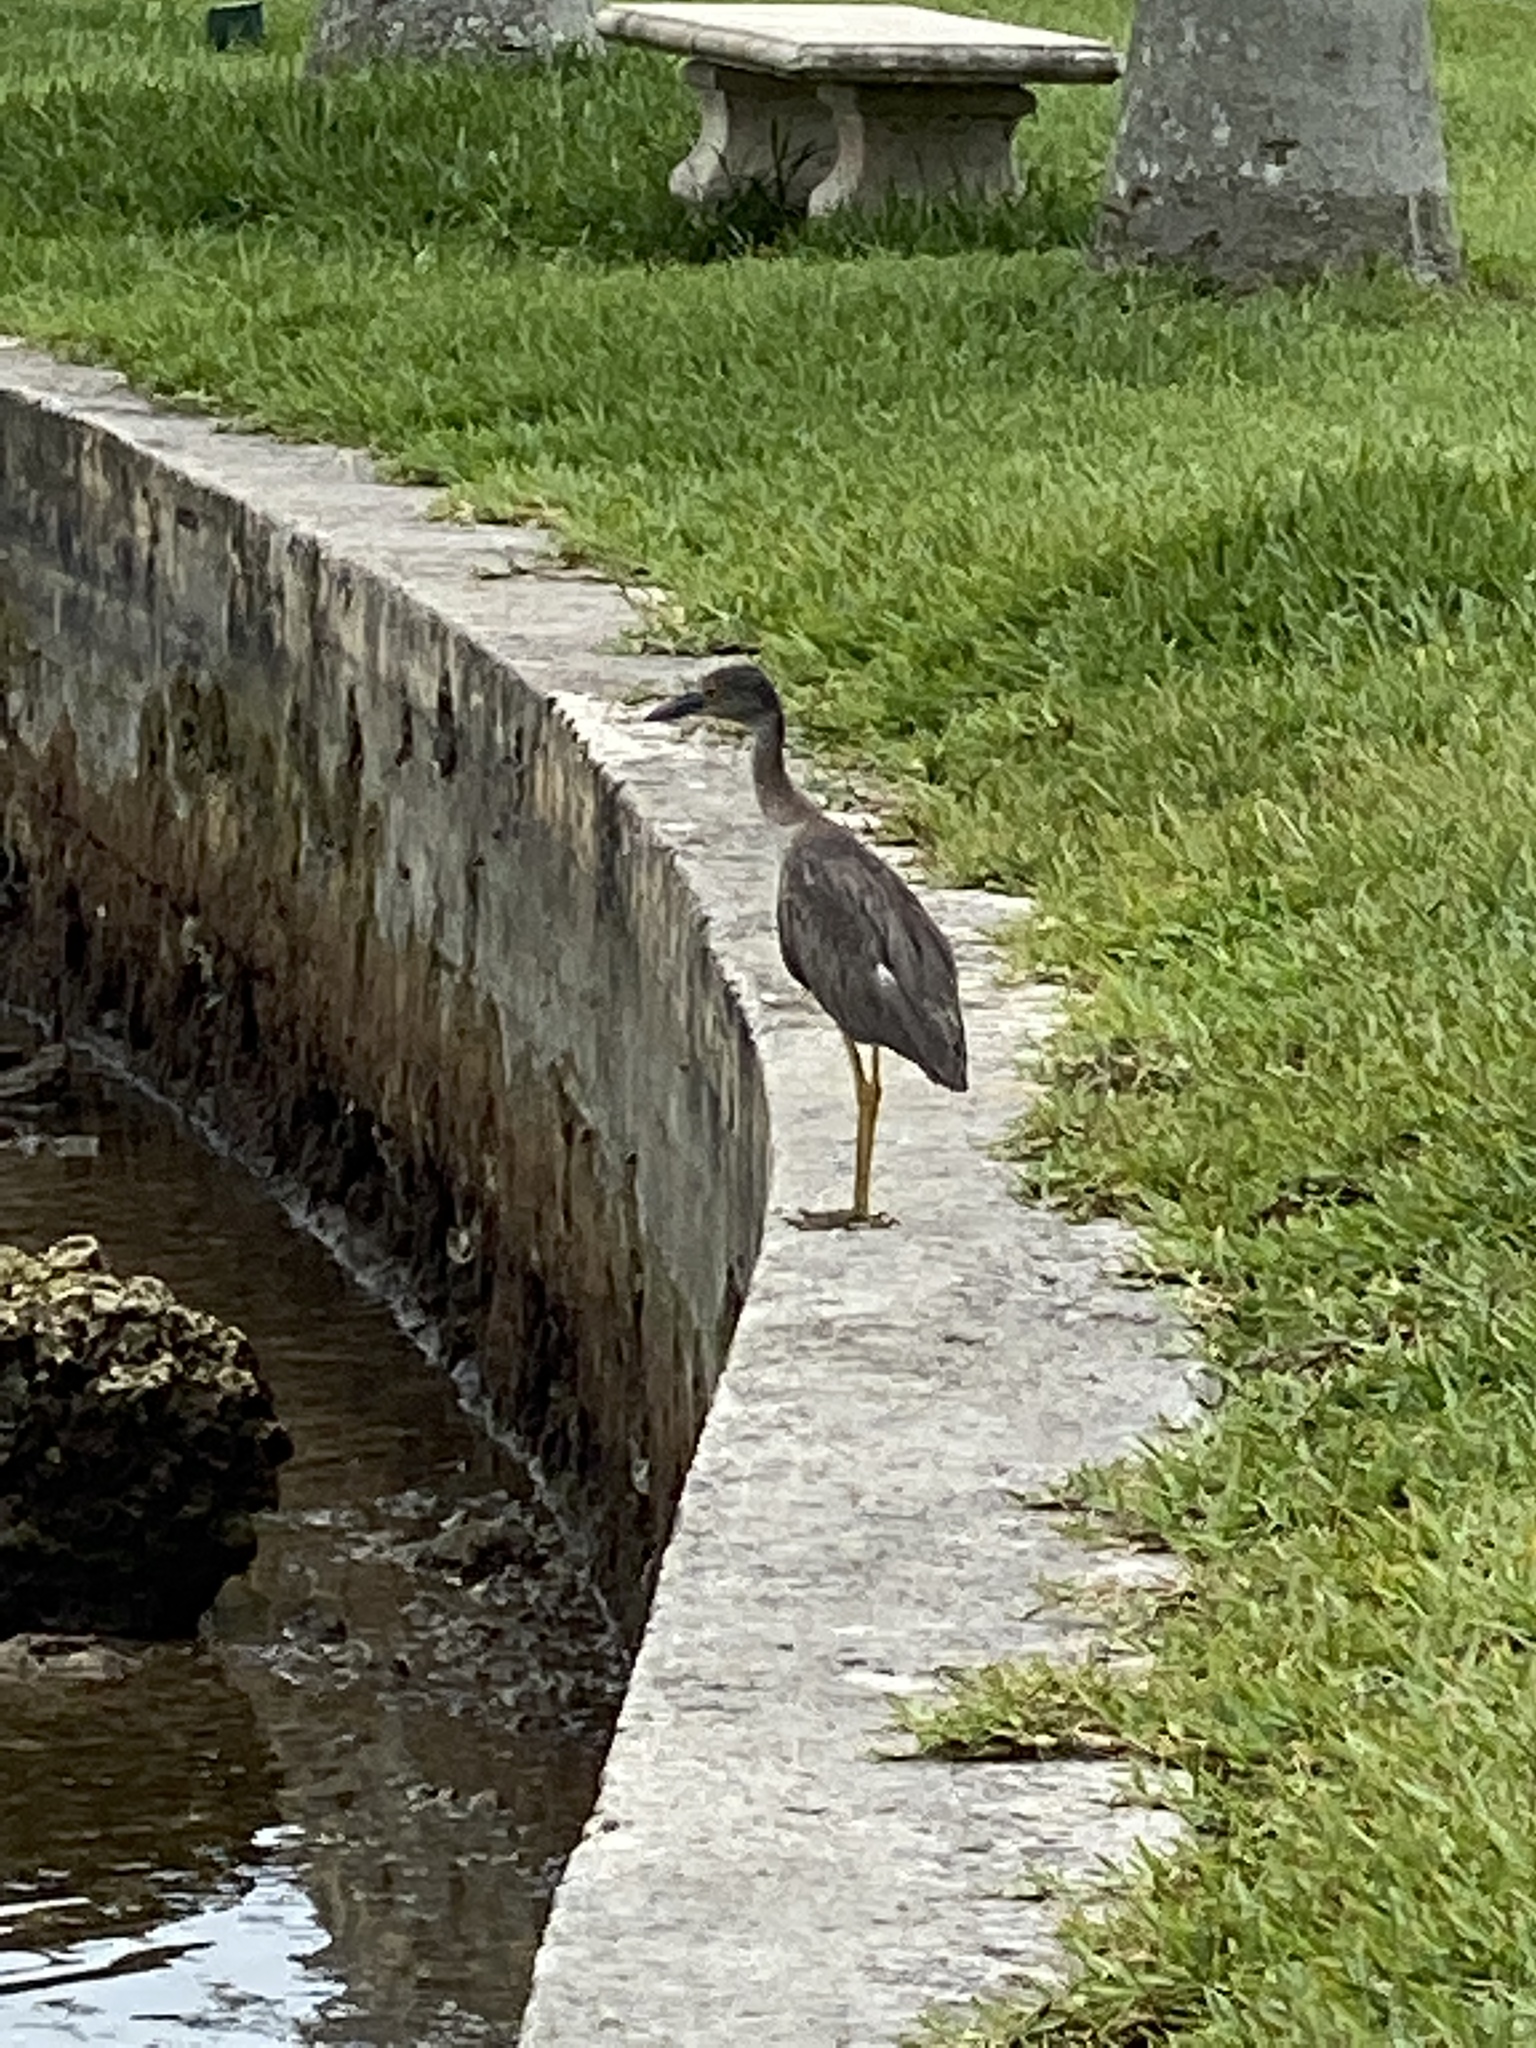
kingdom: Animalia
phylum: Chordata
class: Aves
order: Pelecaniformes
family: Ardeidae
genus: Nyctanassa
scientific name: Nyctanassa violacea
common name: Yellow-crowned night heron
